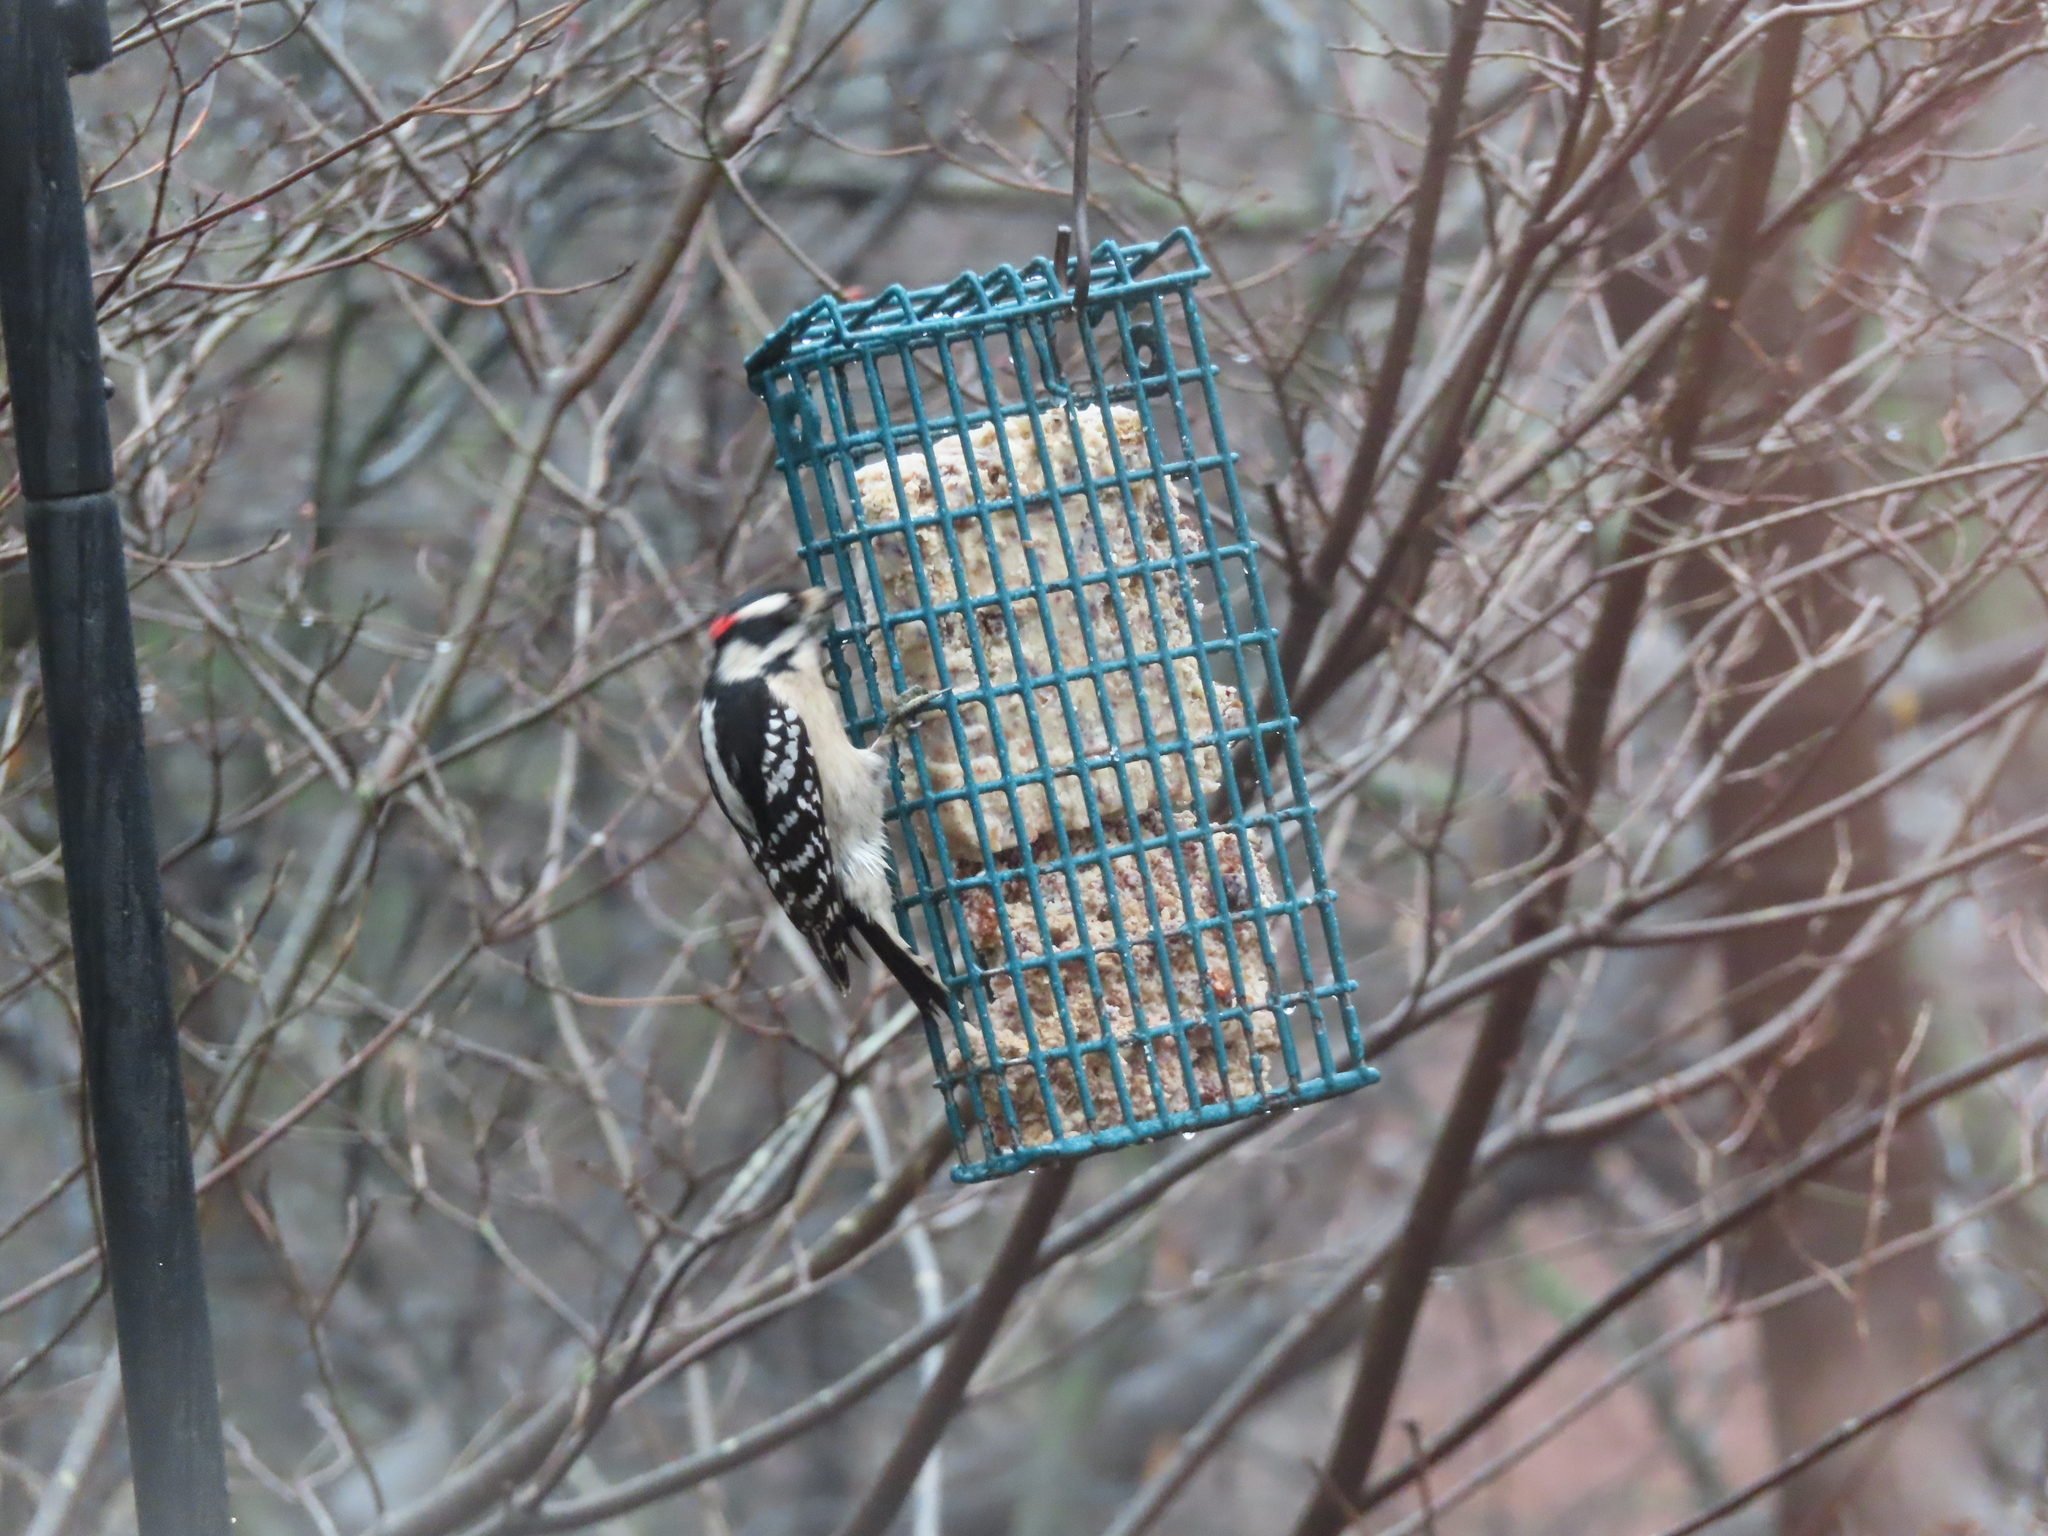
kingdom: Animalia
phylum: Chordata
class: Aves
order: Piciformes
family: Picidae
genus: Dryobates
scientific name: Dryobates pubescens
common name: Downy woodpecker
